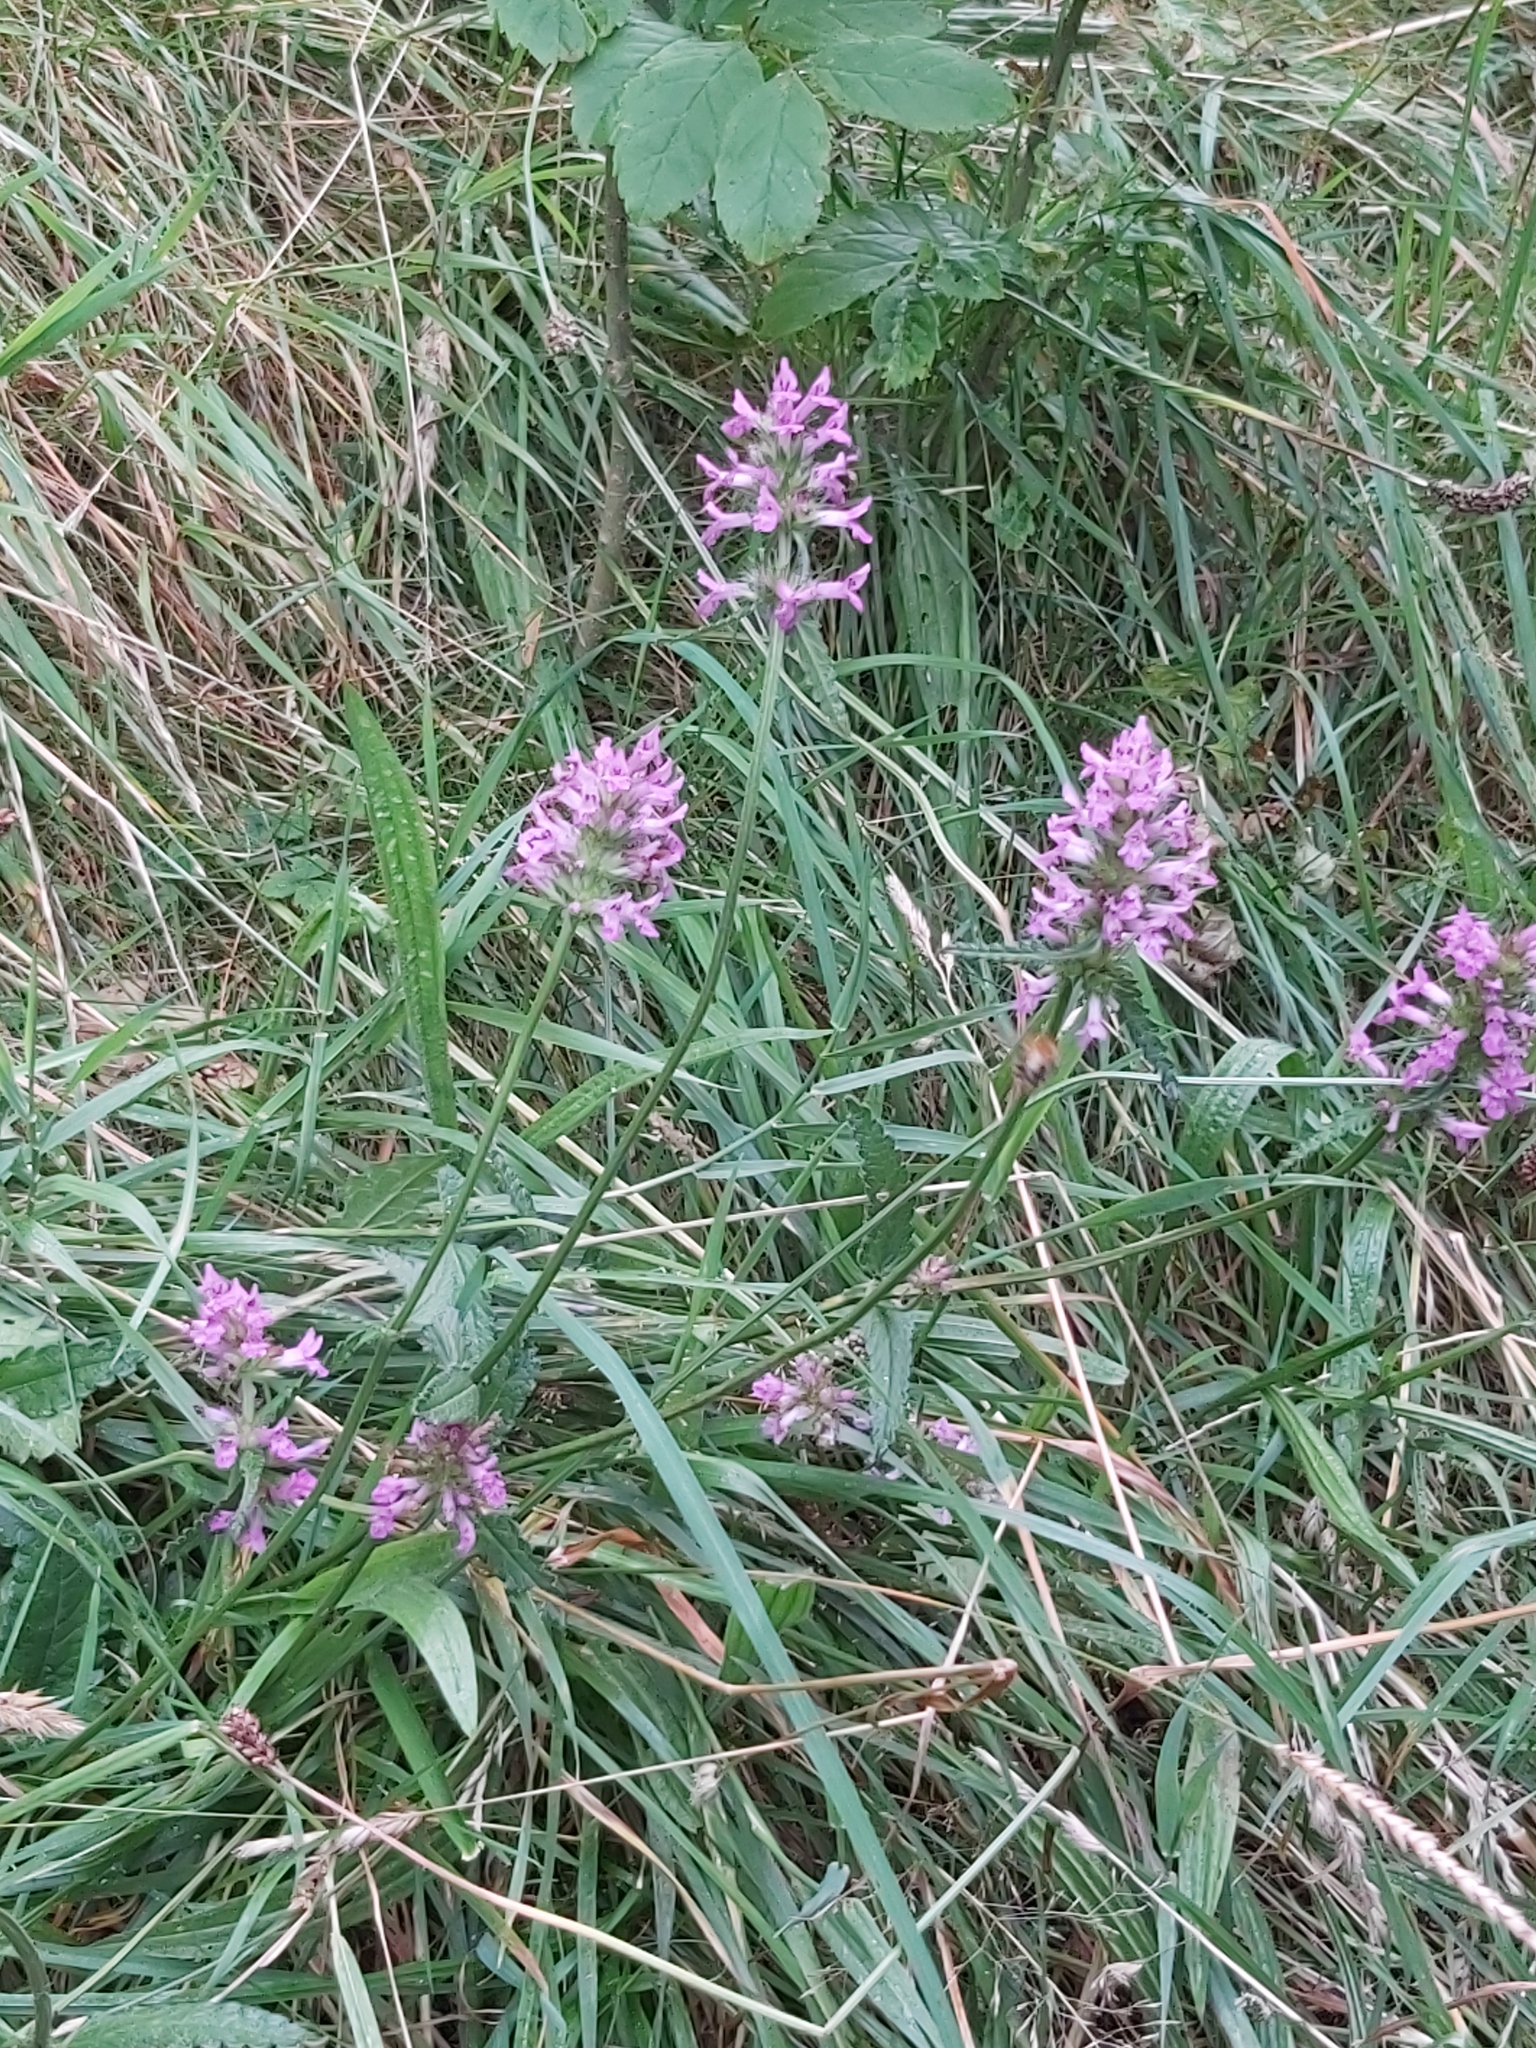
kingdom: Plantae
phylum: Tracheophyta
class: Magnoliopsida
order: Lamiales
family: Lamiaceae
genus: Betonica
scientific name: Betonica officinalis
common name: Bishop's-wort
